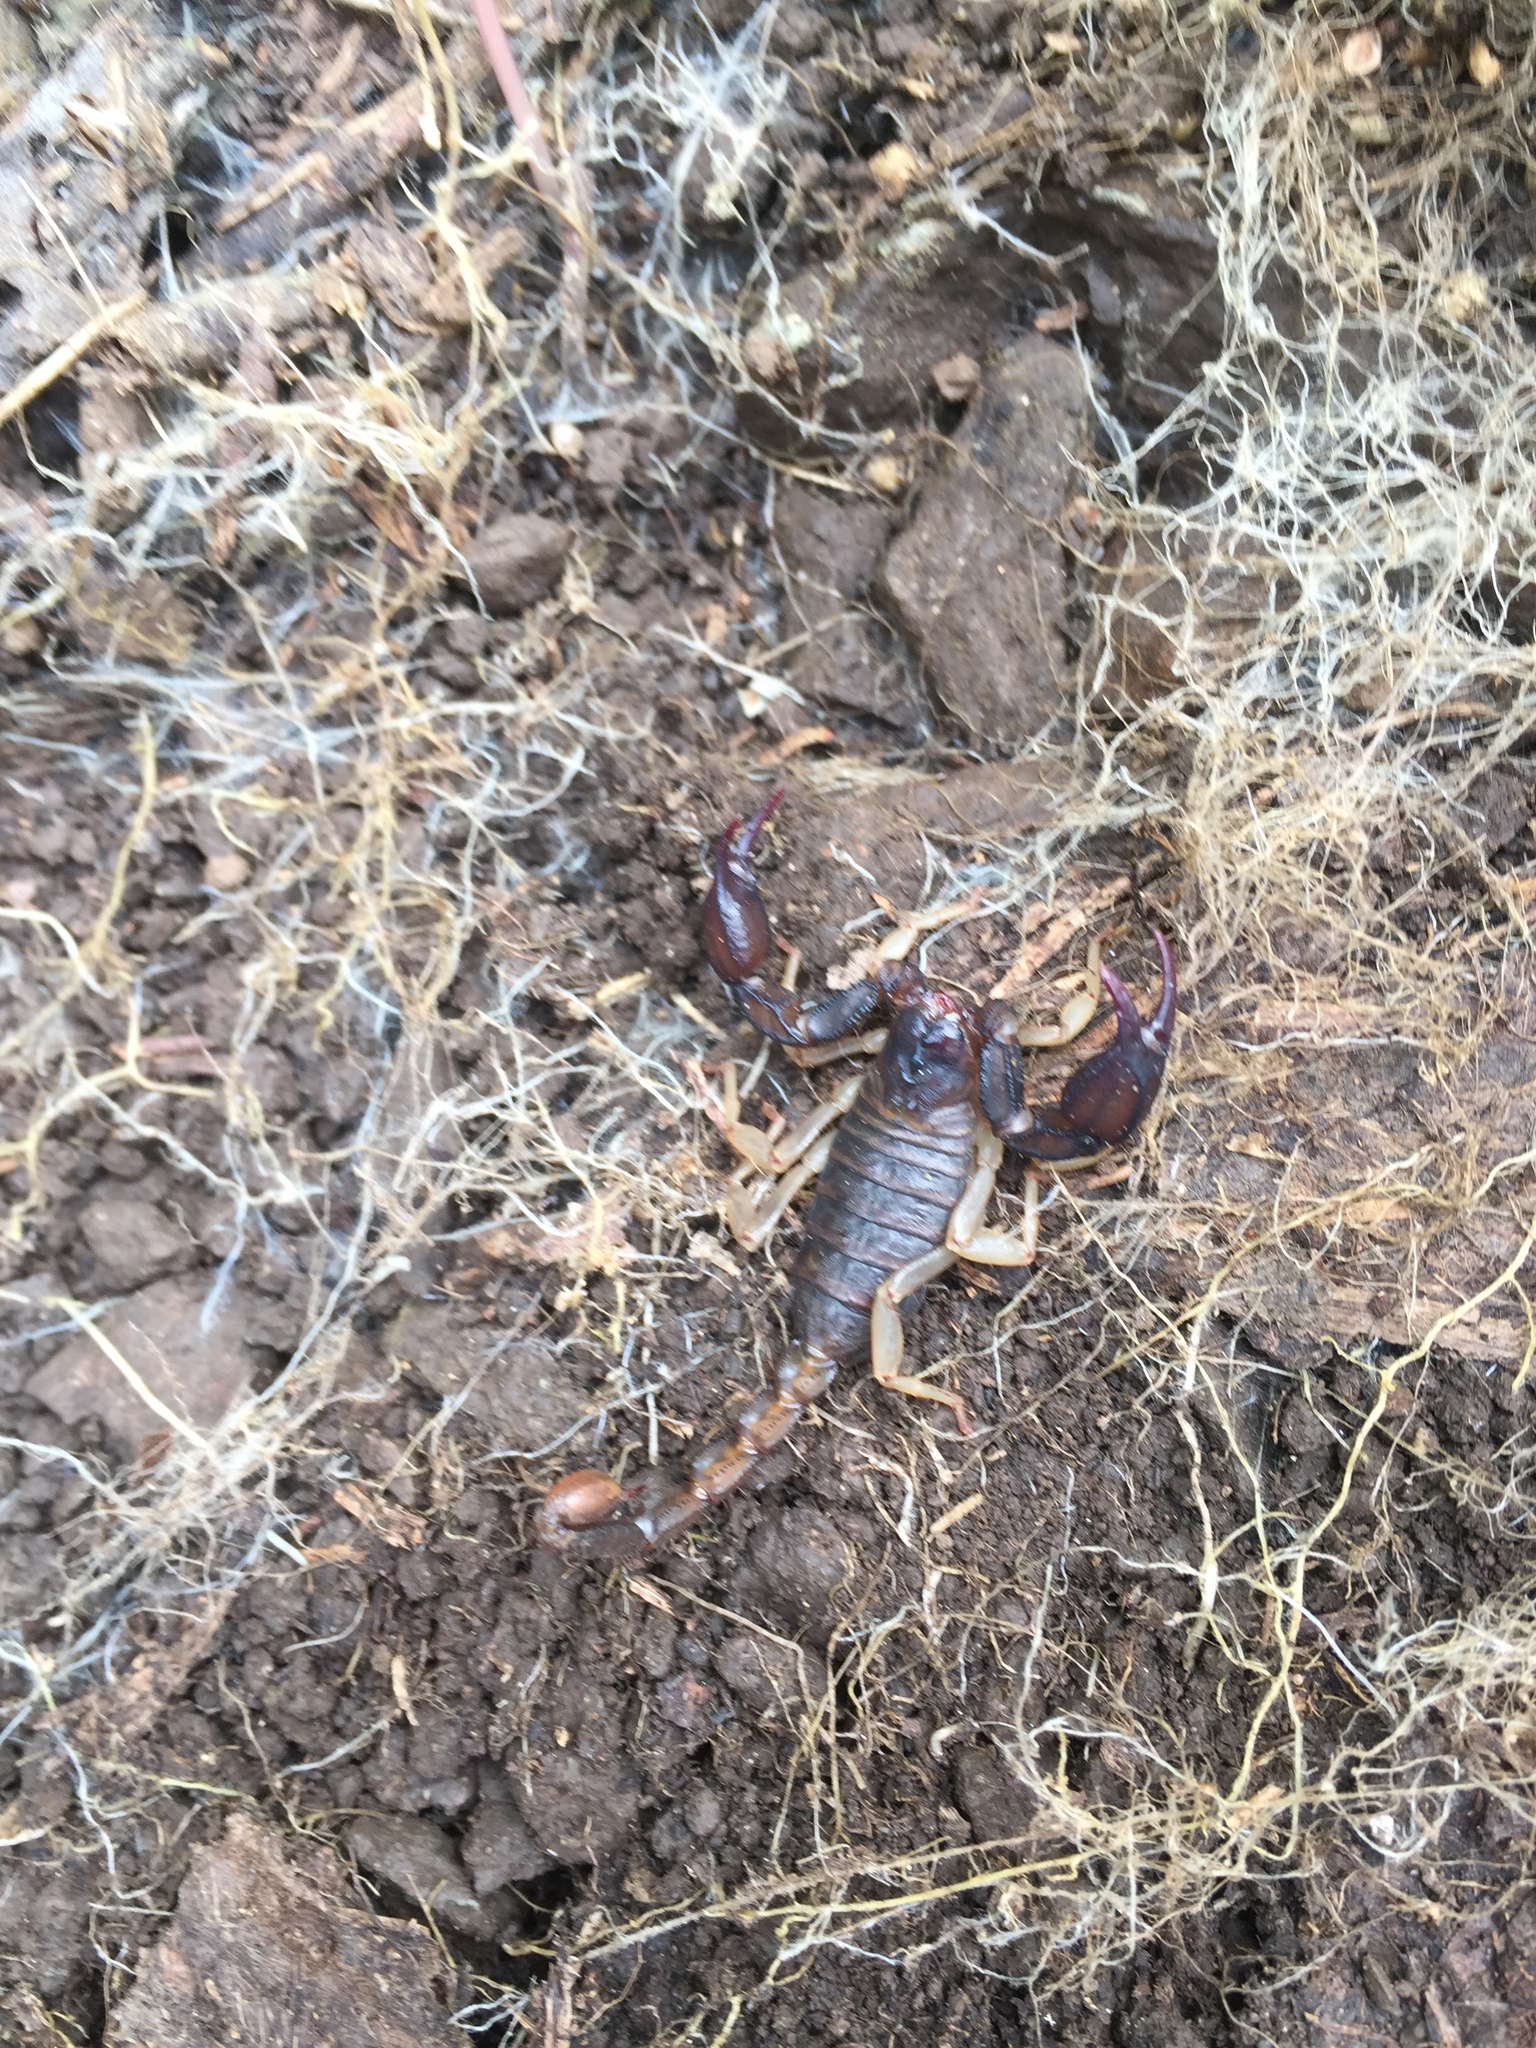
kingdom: Animalia
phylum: Arthropoda
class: Arachnida
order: Scorpiones
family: Chactidae
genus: Uroctonus
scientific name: Uroctonus mordax
